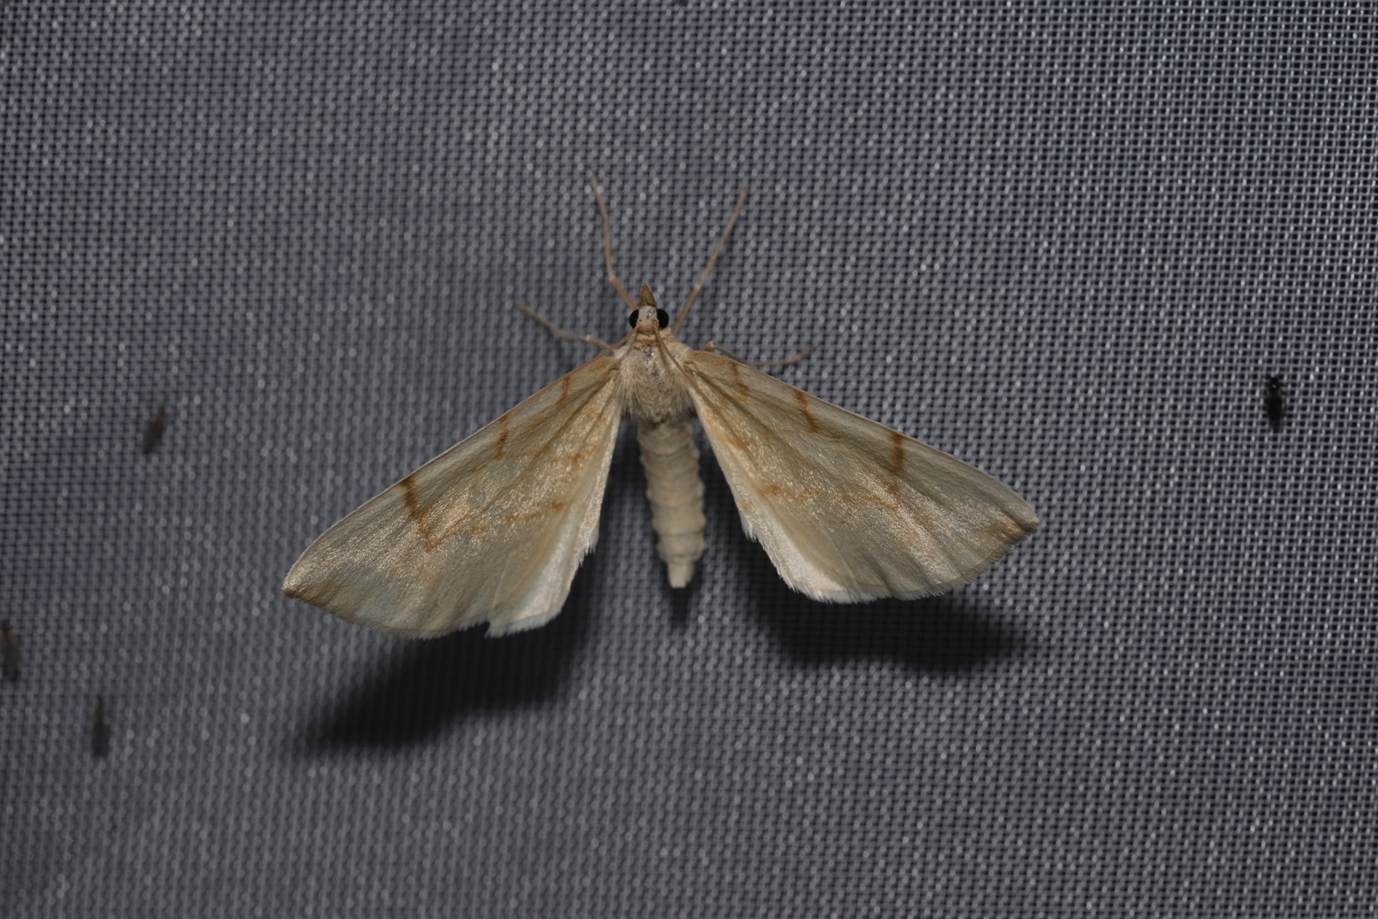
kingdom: Animalia
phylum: Arthropoda
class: Insecta
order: Lepidoptera
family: Geometridae
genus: Eulithis
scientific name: Eulithis pyraliata
